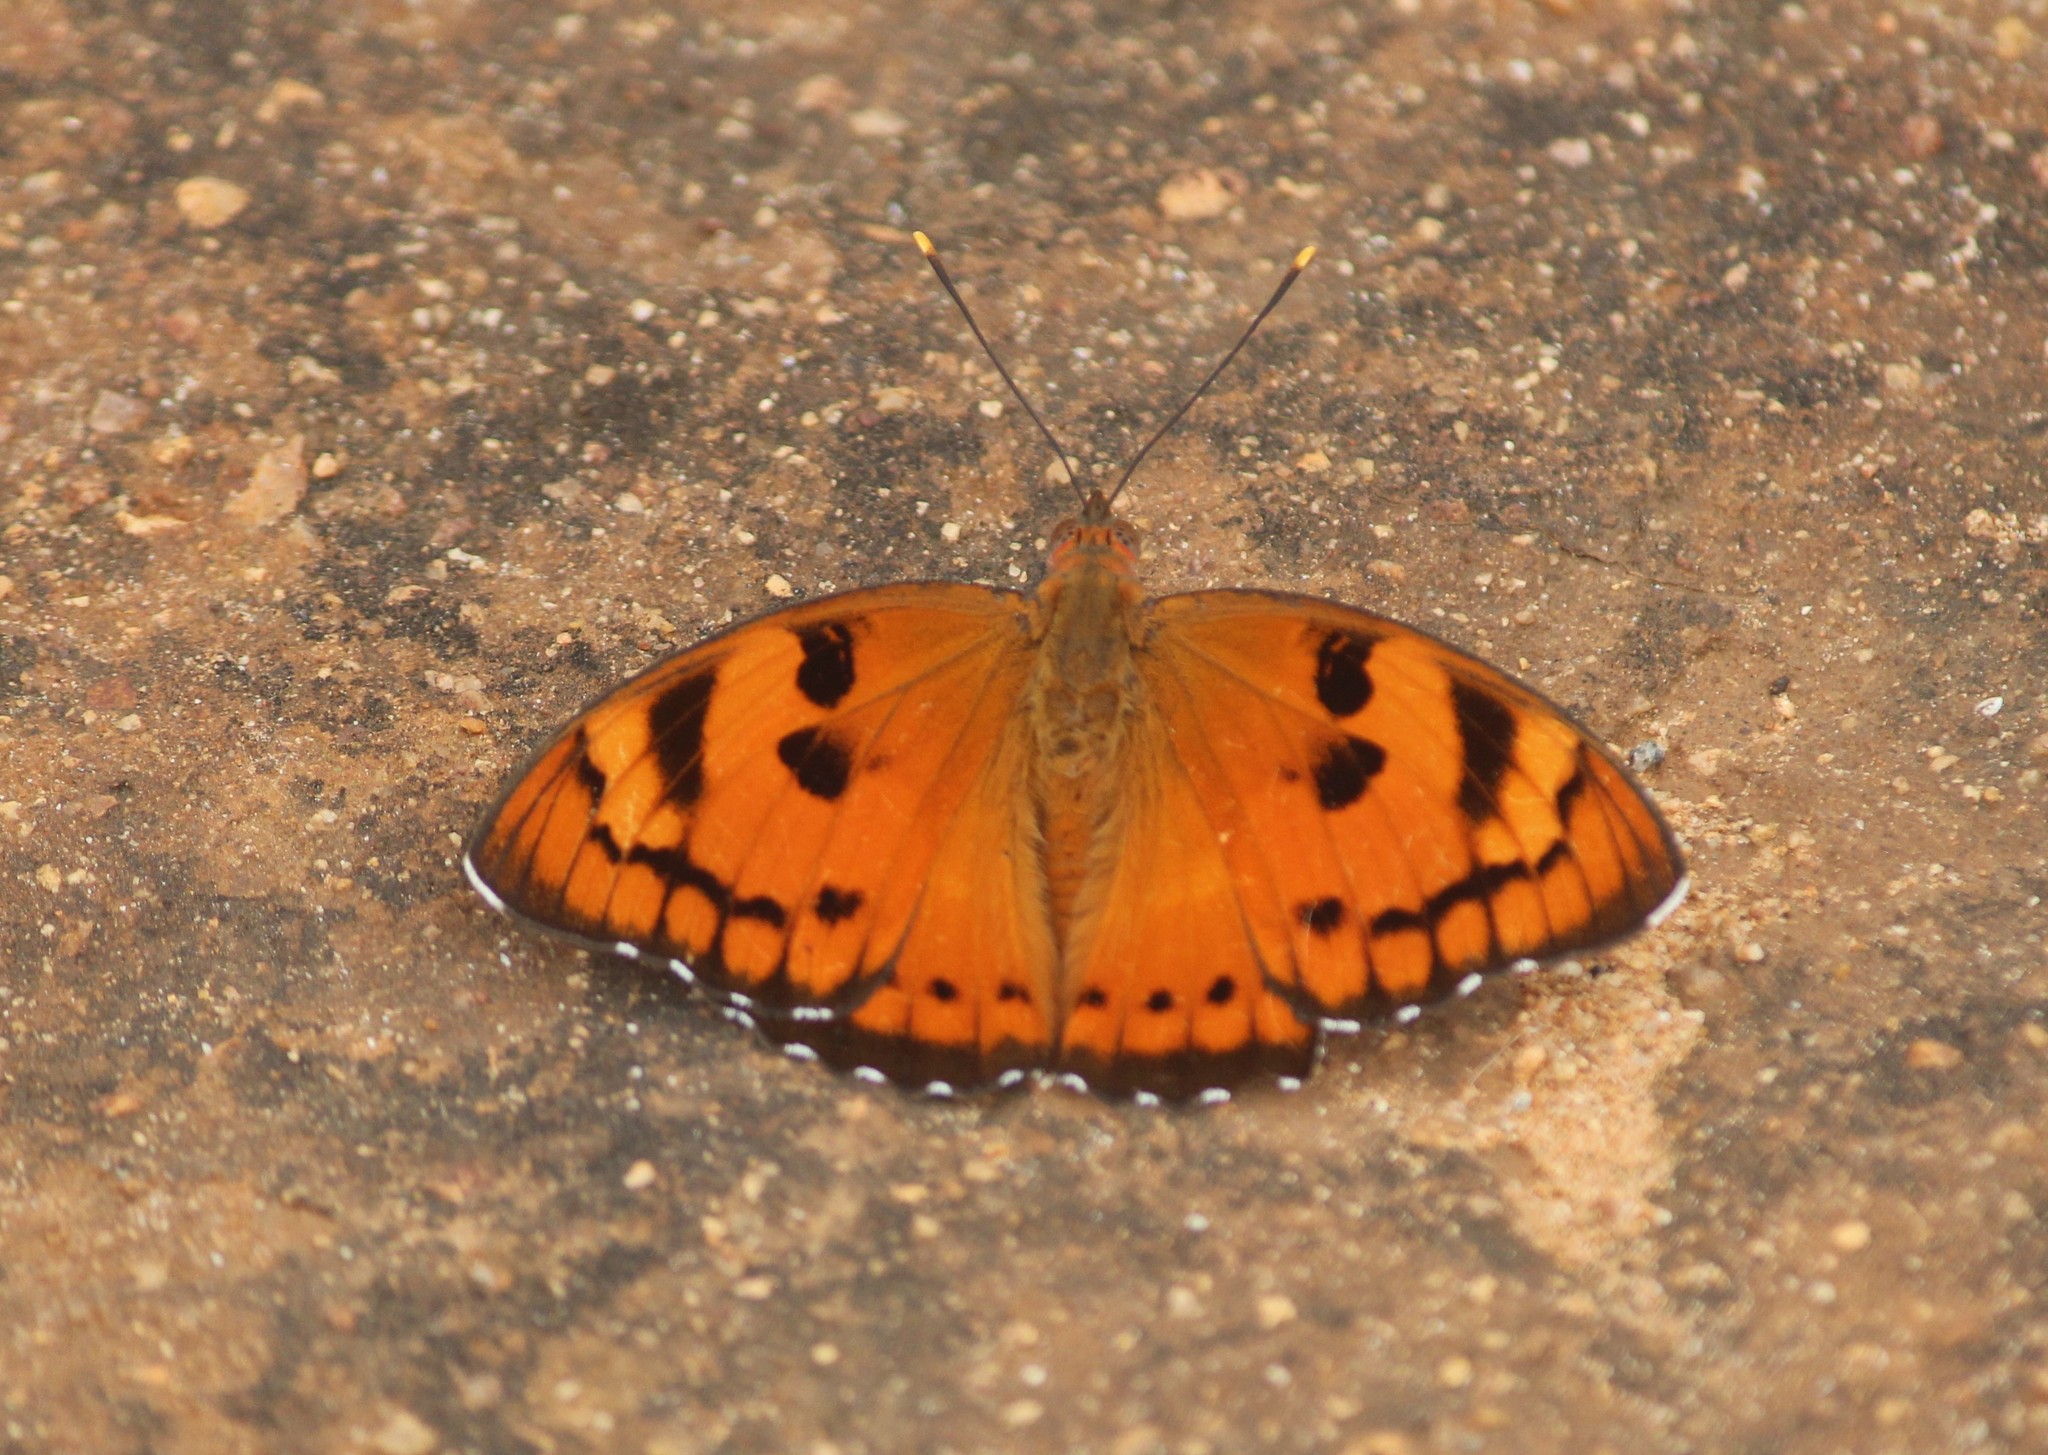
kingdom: Animalia
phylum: Arthropoda
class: Insecta
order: Lepidoptera
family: Nymphalidae
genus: Euthalia
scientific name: Euthalia nais
